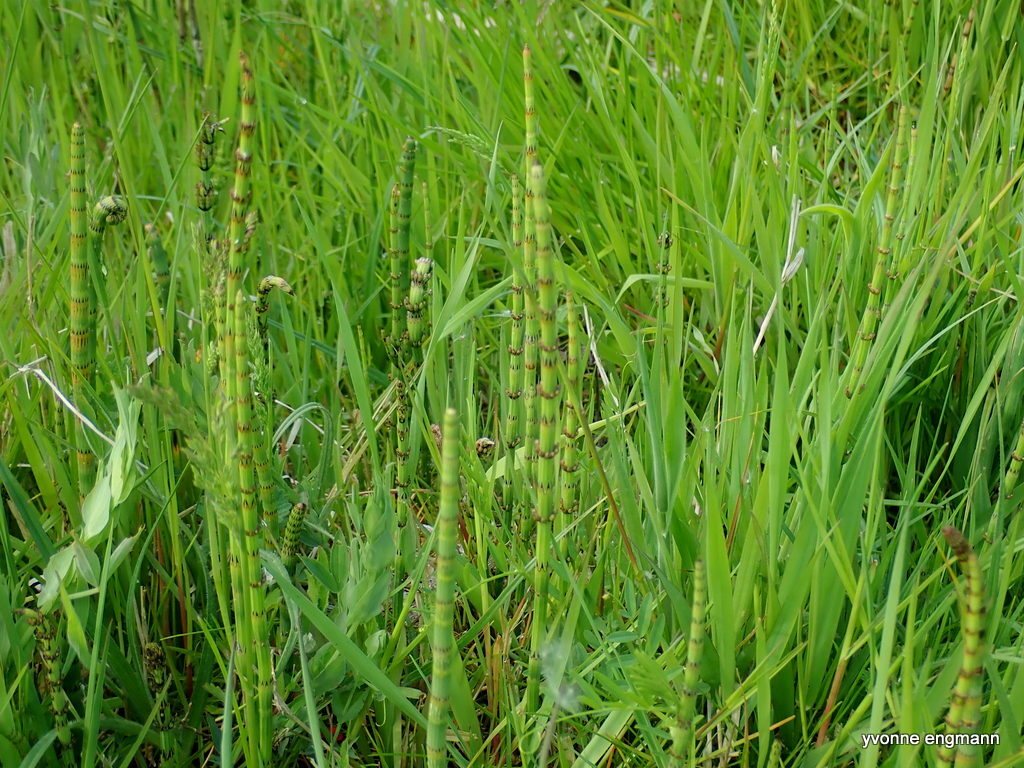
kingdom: Plantae
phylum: Tracheophyta
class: Polypodiopsida
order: Equisetales
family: Equisetaceae
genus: Equisetum
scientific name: Equisetum fluviatile
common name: Water horsetail
